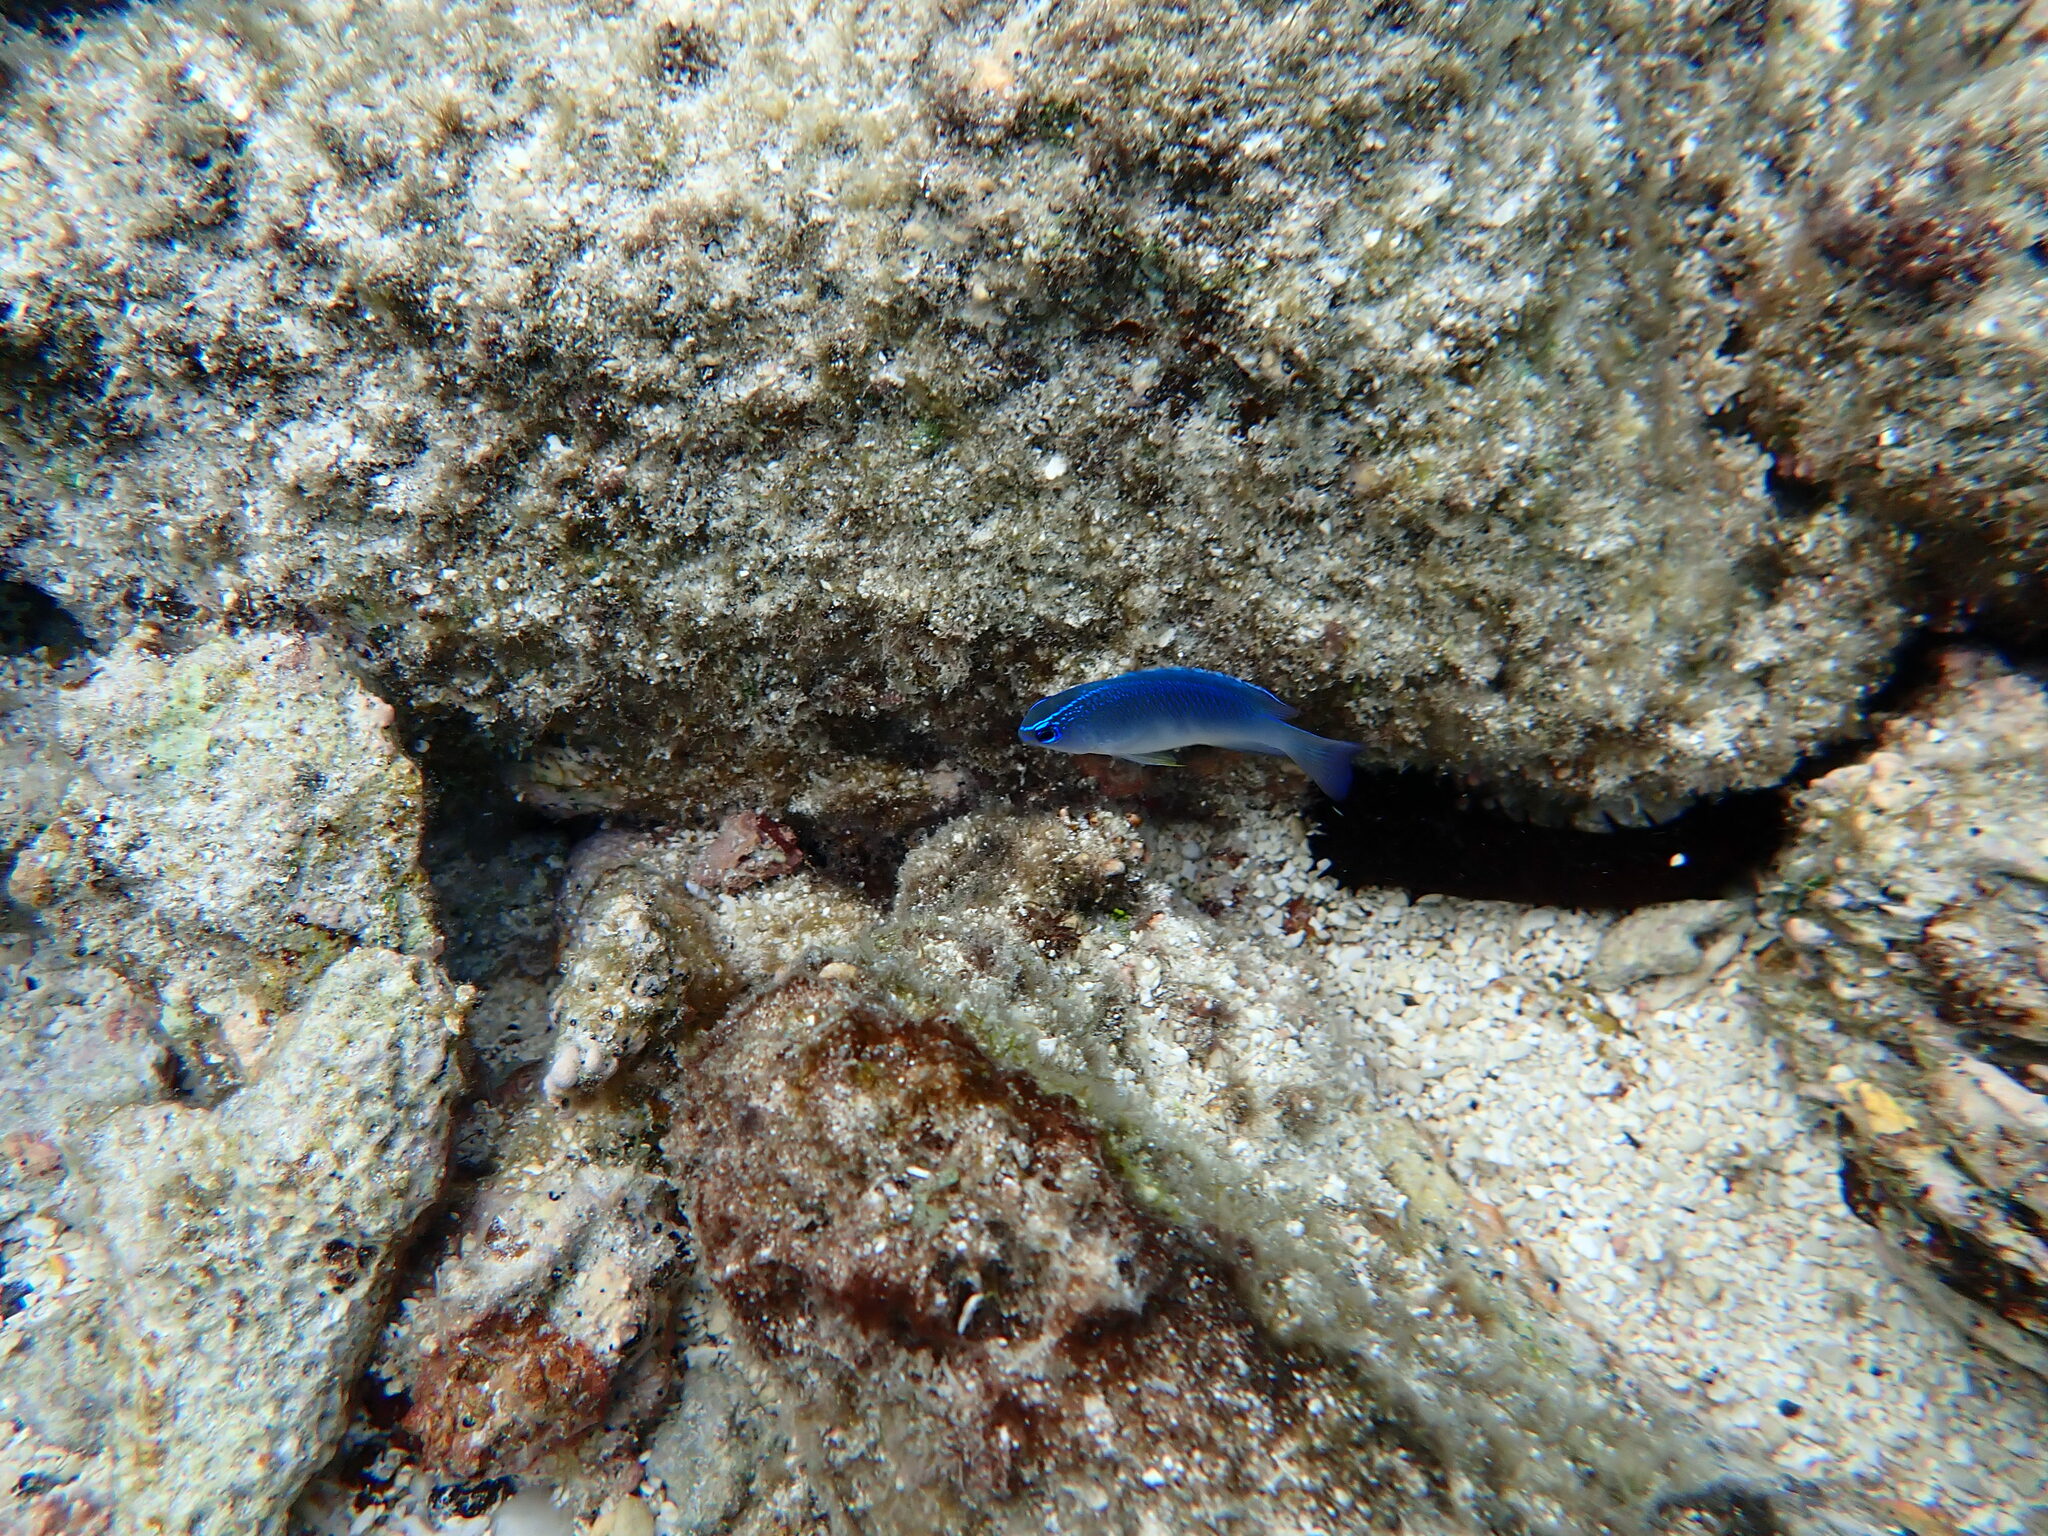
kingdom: Animalia
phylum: Chordata
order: Perciformes
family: Pomacentridae
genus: Chrysiptera
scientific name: Chrysiptera glauca
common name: Grey demoiselle
